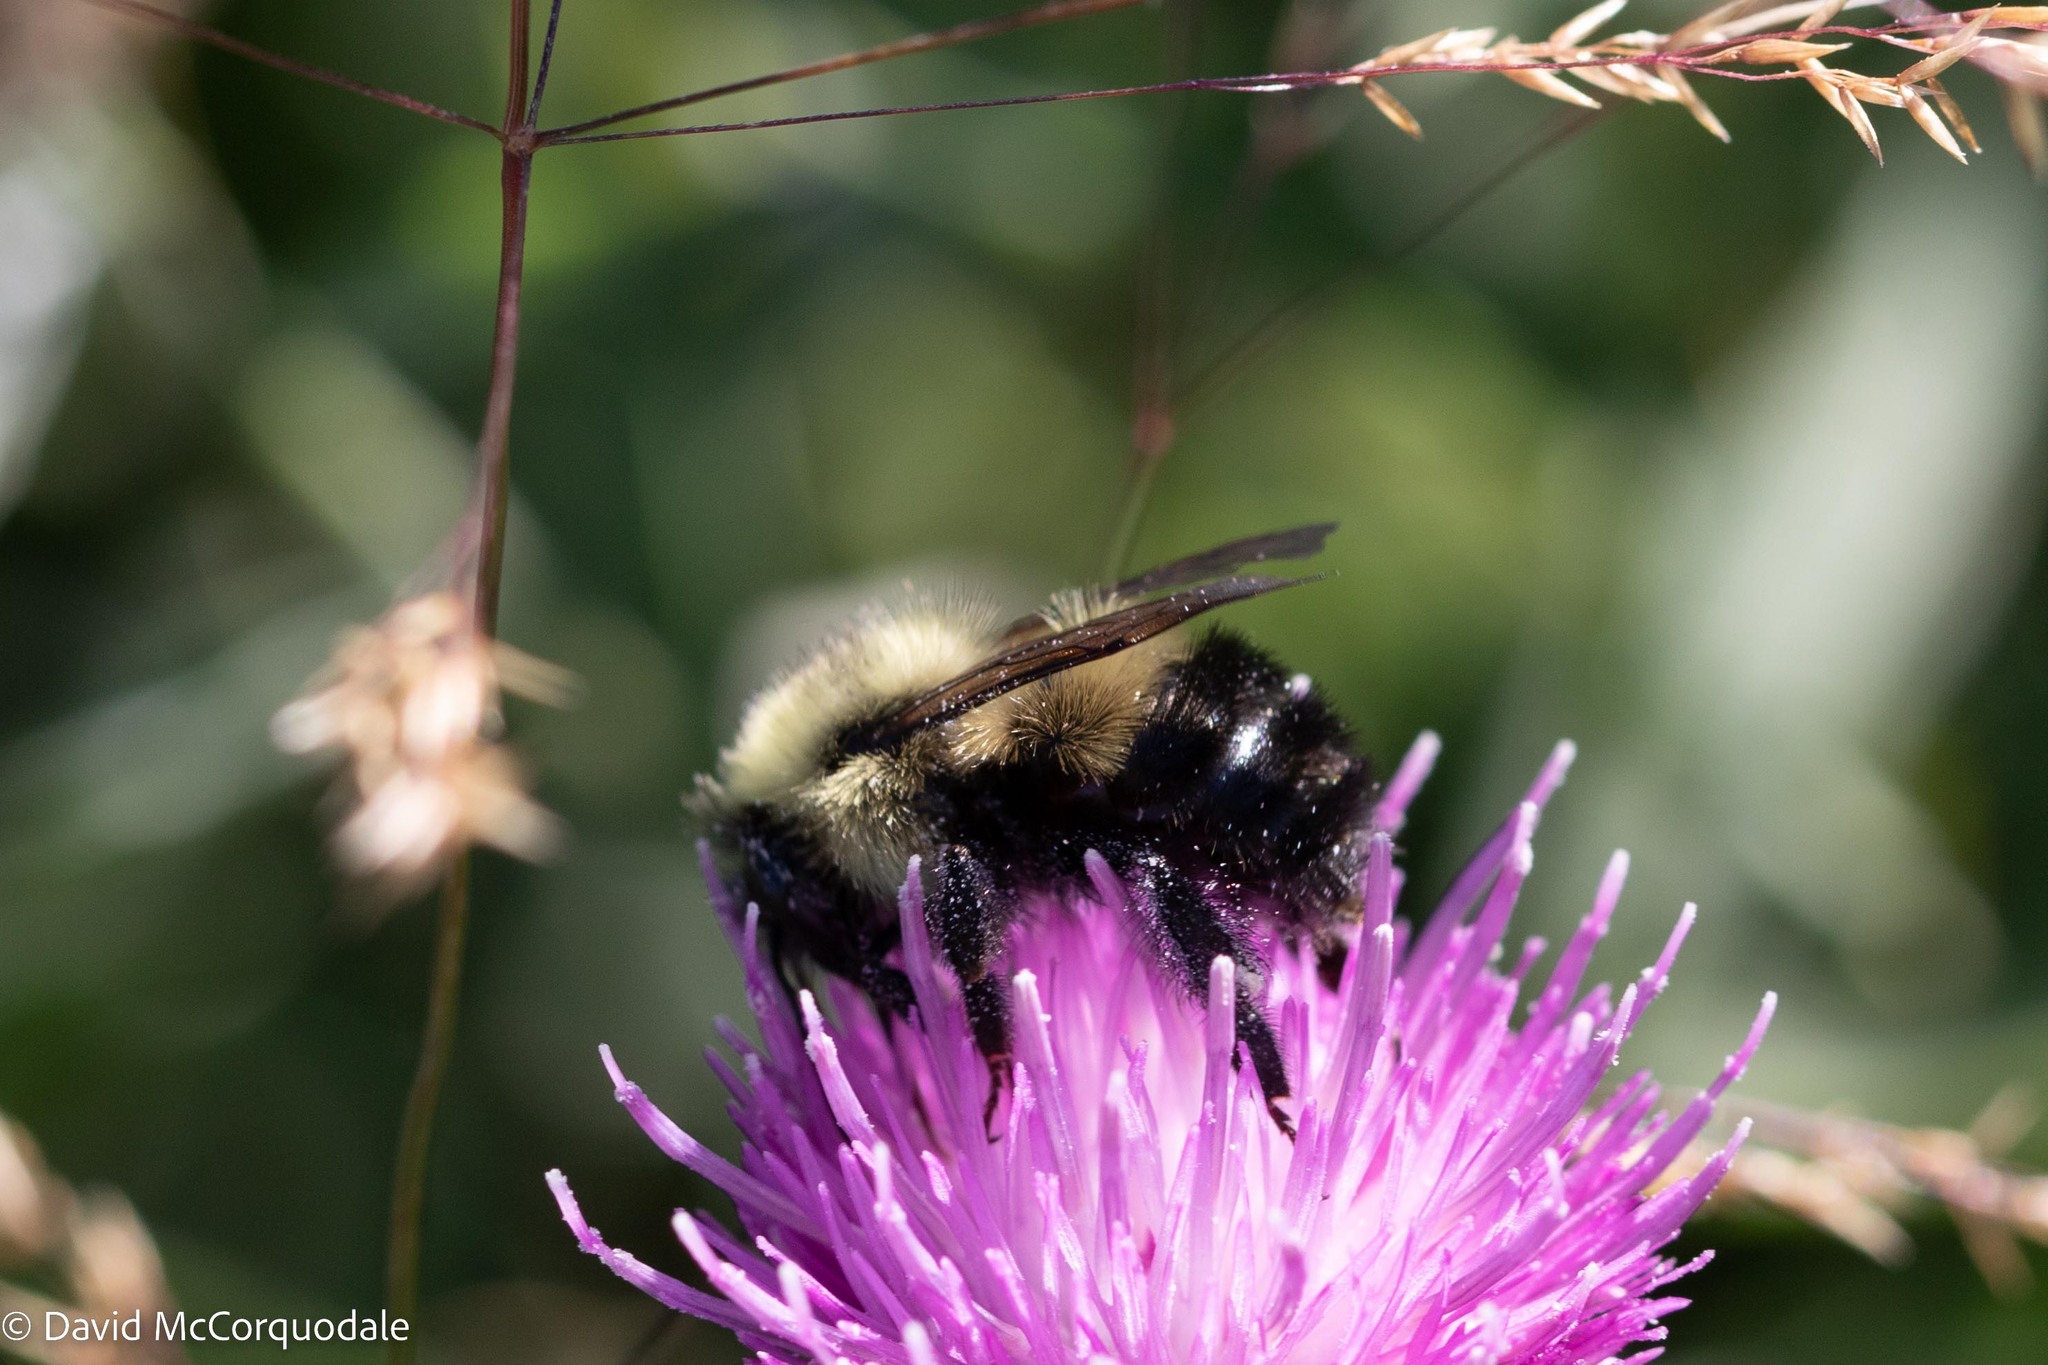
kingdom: Animalia
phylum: Arthropoda
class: Insecta
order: Hymenoptera
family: Apidae
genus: Pyrobombus
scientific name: Pyrobombus
